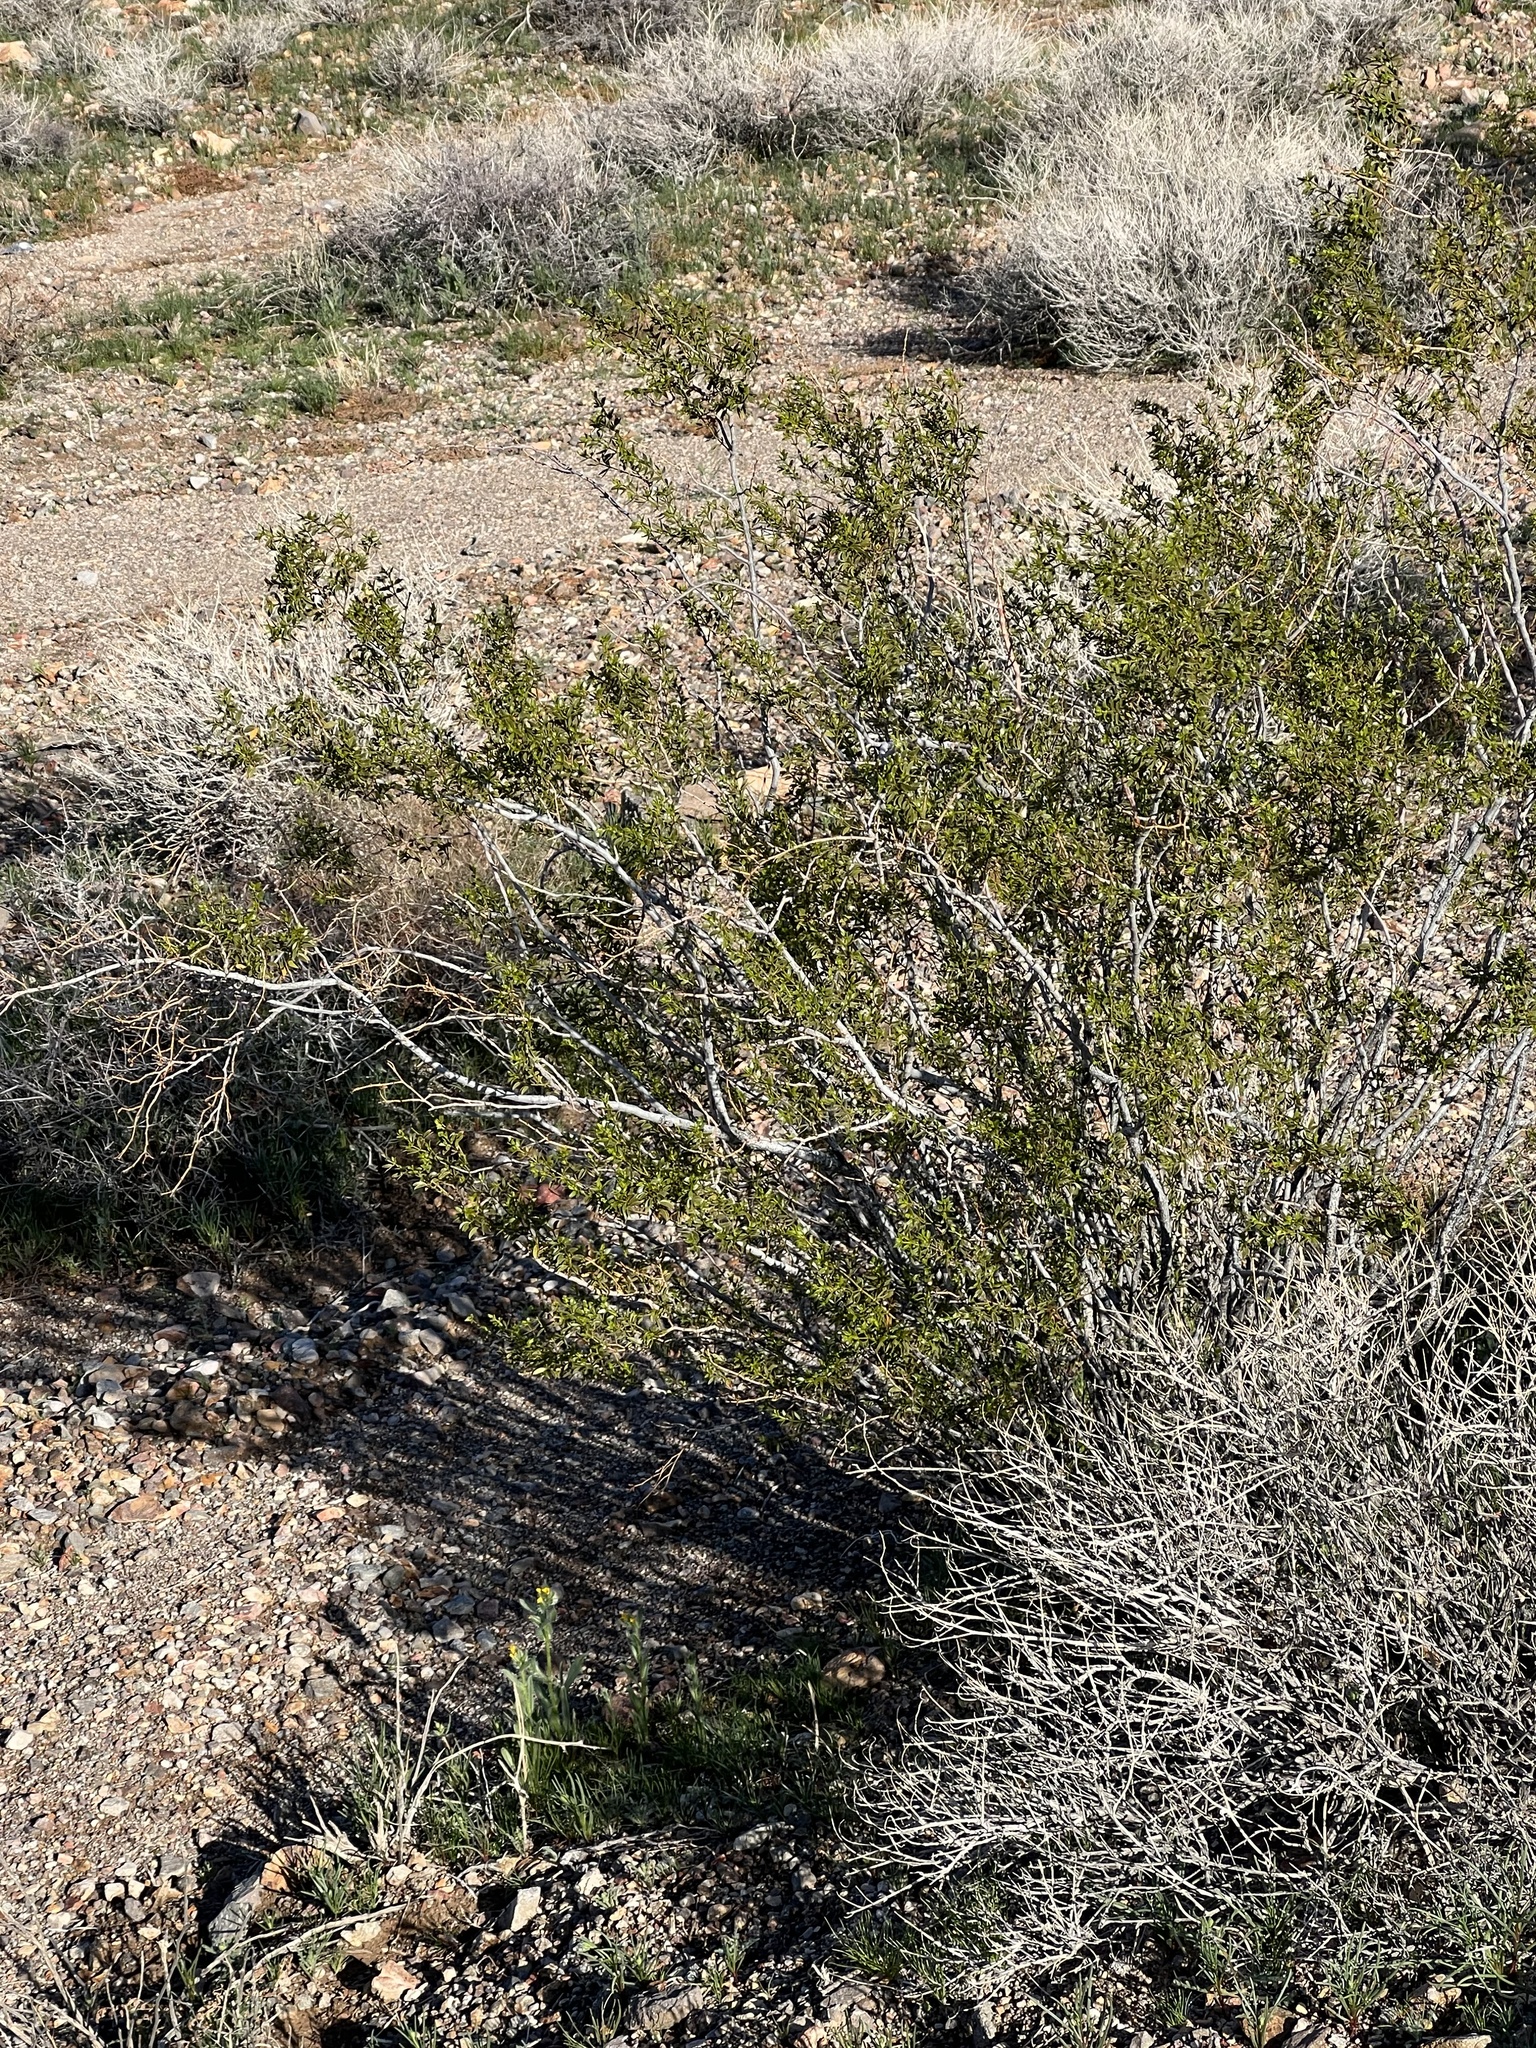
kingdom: Plantae
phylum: Tracheophyta
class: Magnoliopsida
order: Zygophyllales
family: Zygophyllaceae
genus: Larrea
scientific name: Larrea tridentata
